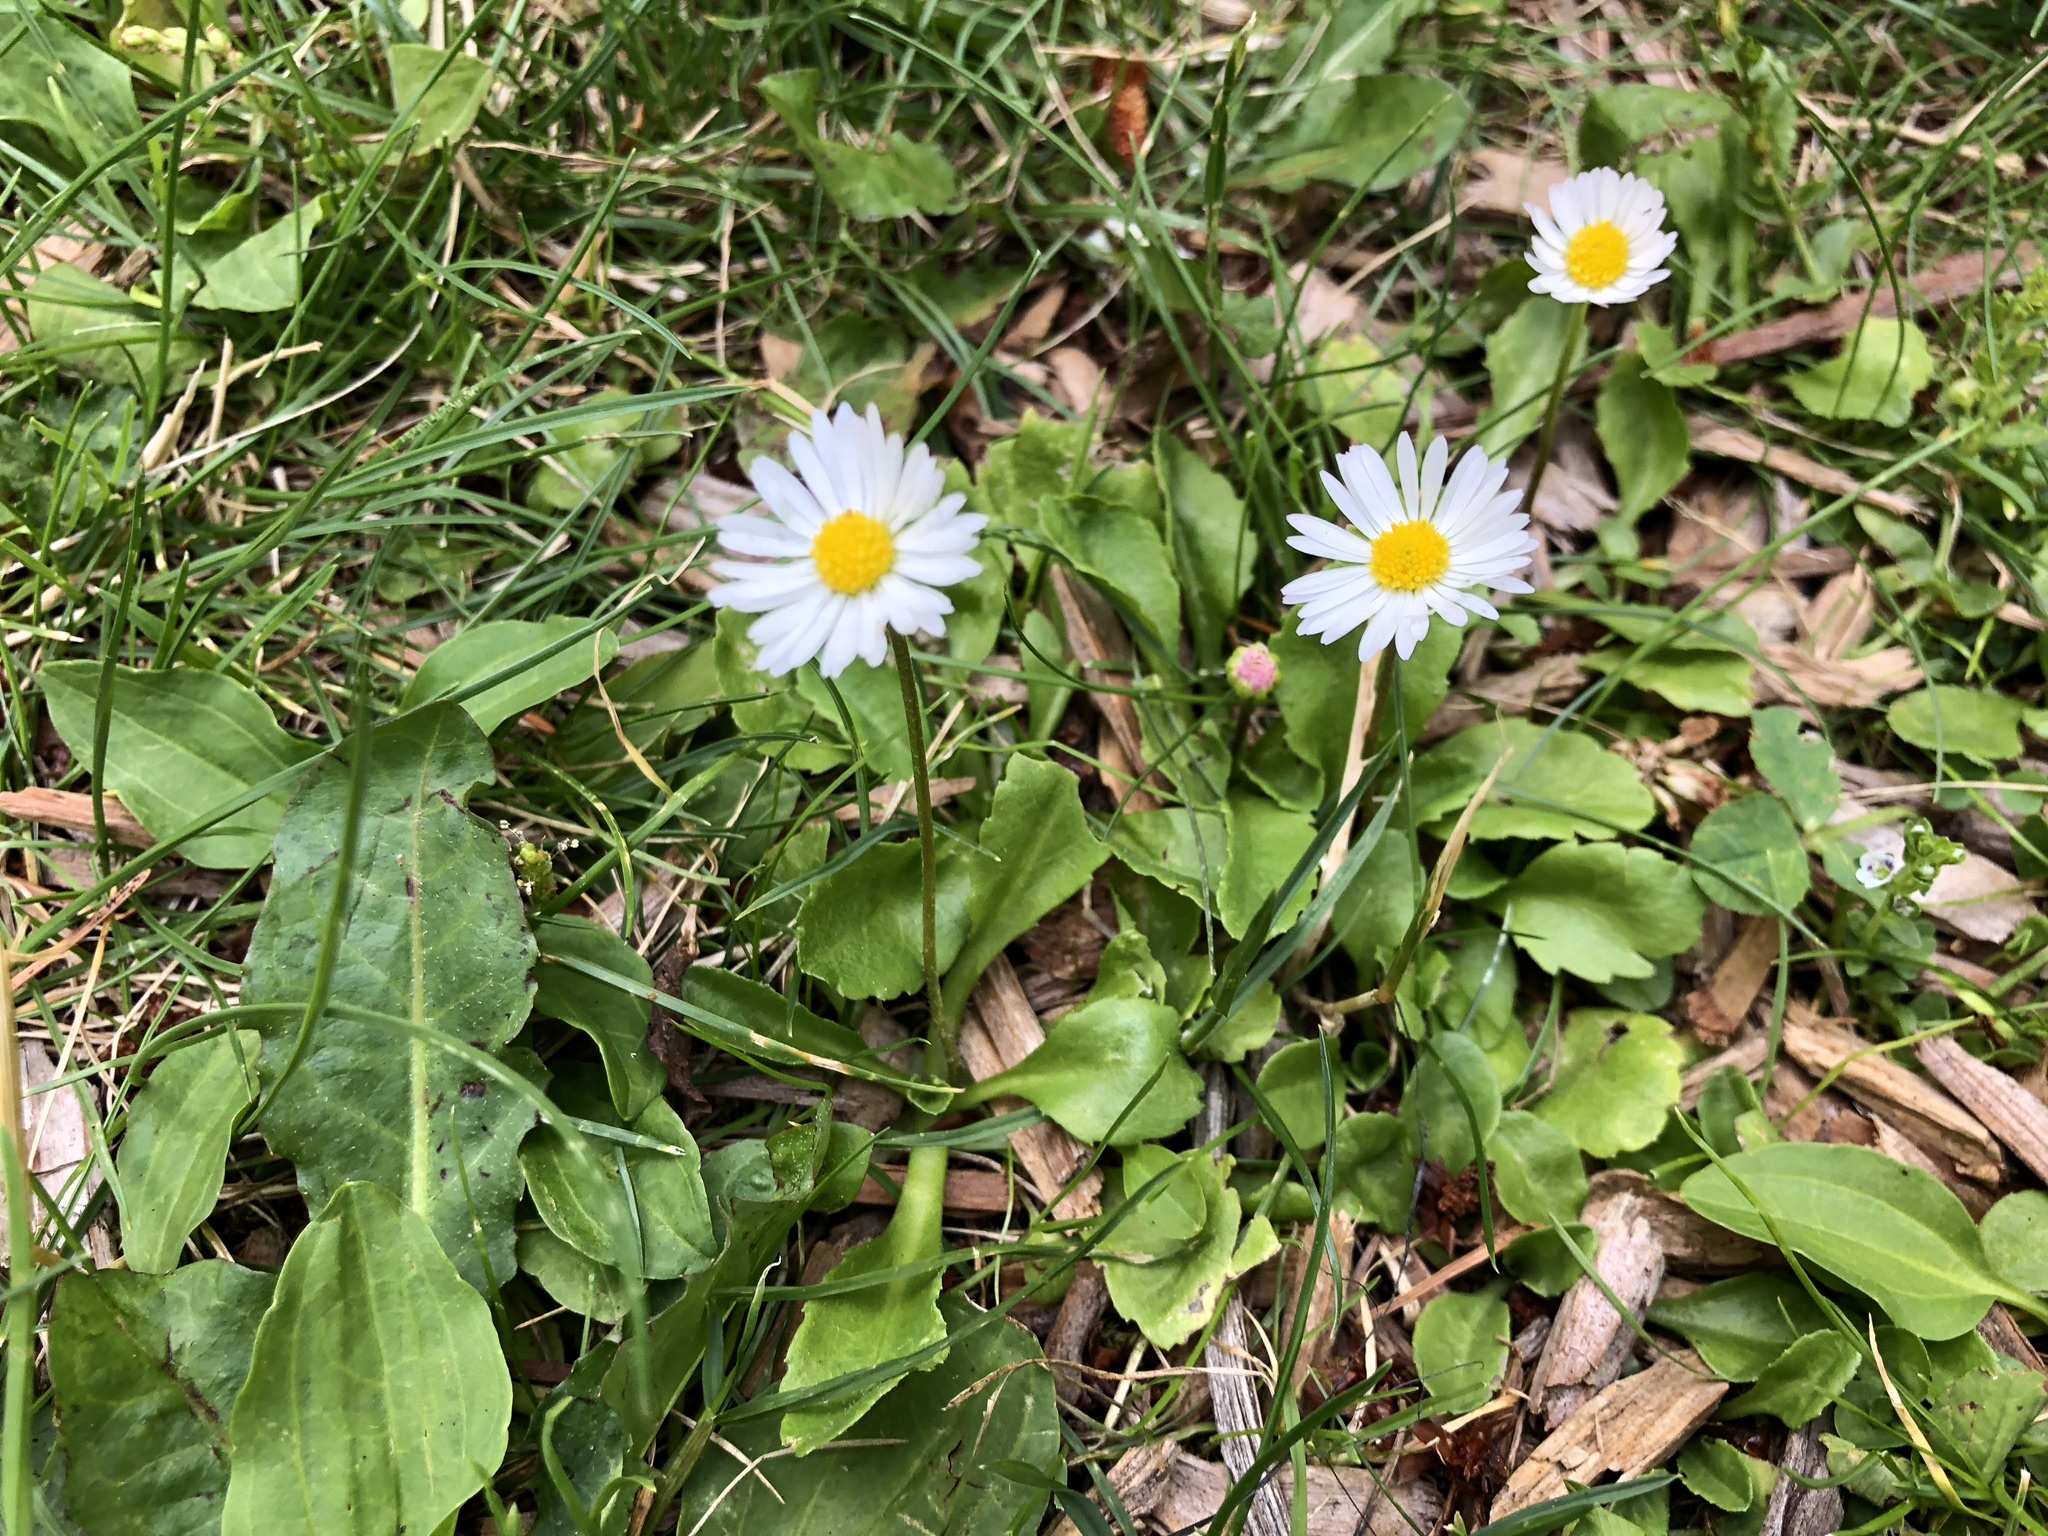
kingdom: Plantae
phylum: Tracheophyta
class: Magnoliopsida
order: Asterales
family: Asteraceae
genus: Bellis
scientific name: Bellis perennis
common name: Lawndaisy
